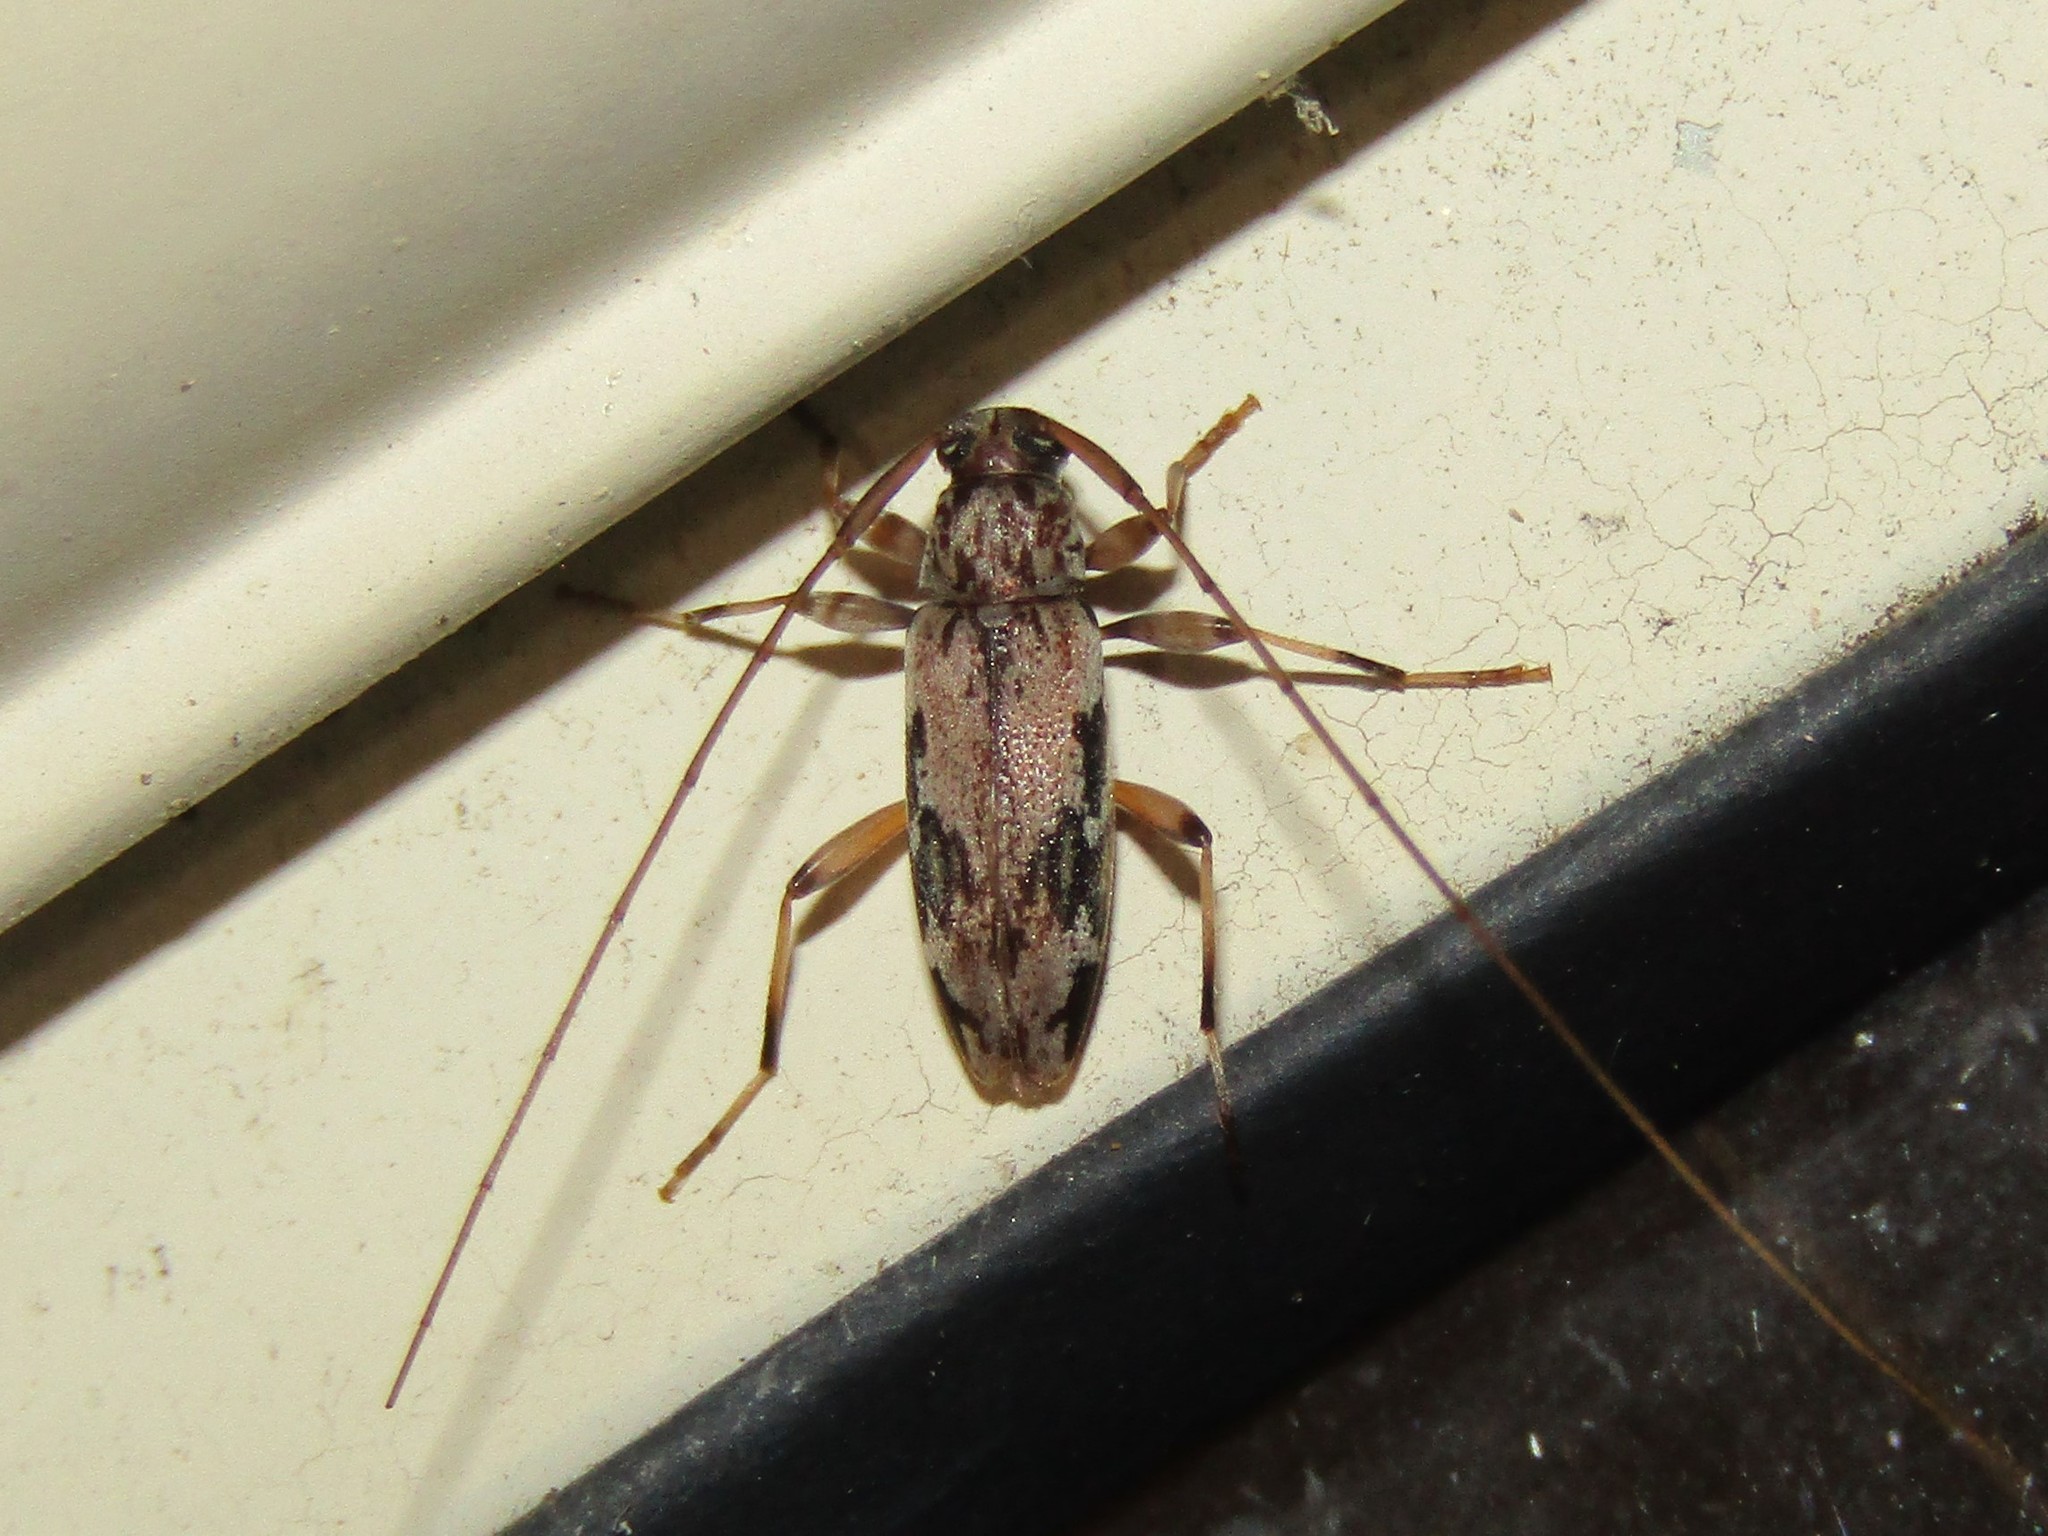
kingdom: Animalia
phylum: Arthropoda
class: Insecta
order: Coleoptera
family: Cerambycidae
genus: Lepturges
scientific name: Lepturges angulatus
